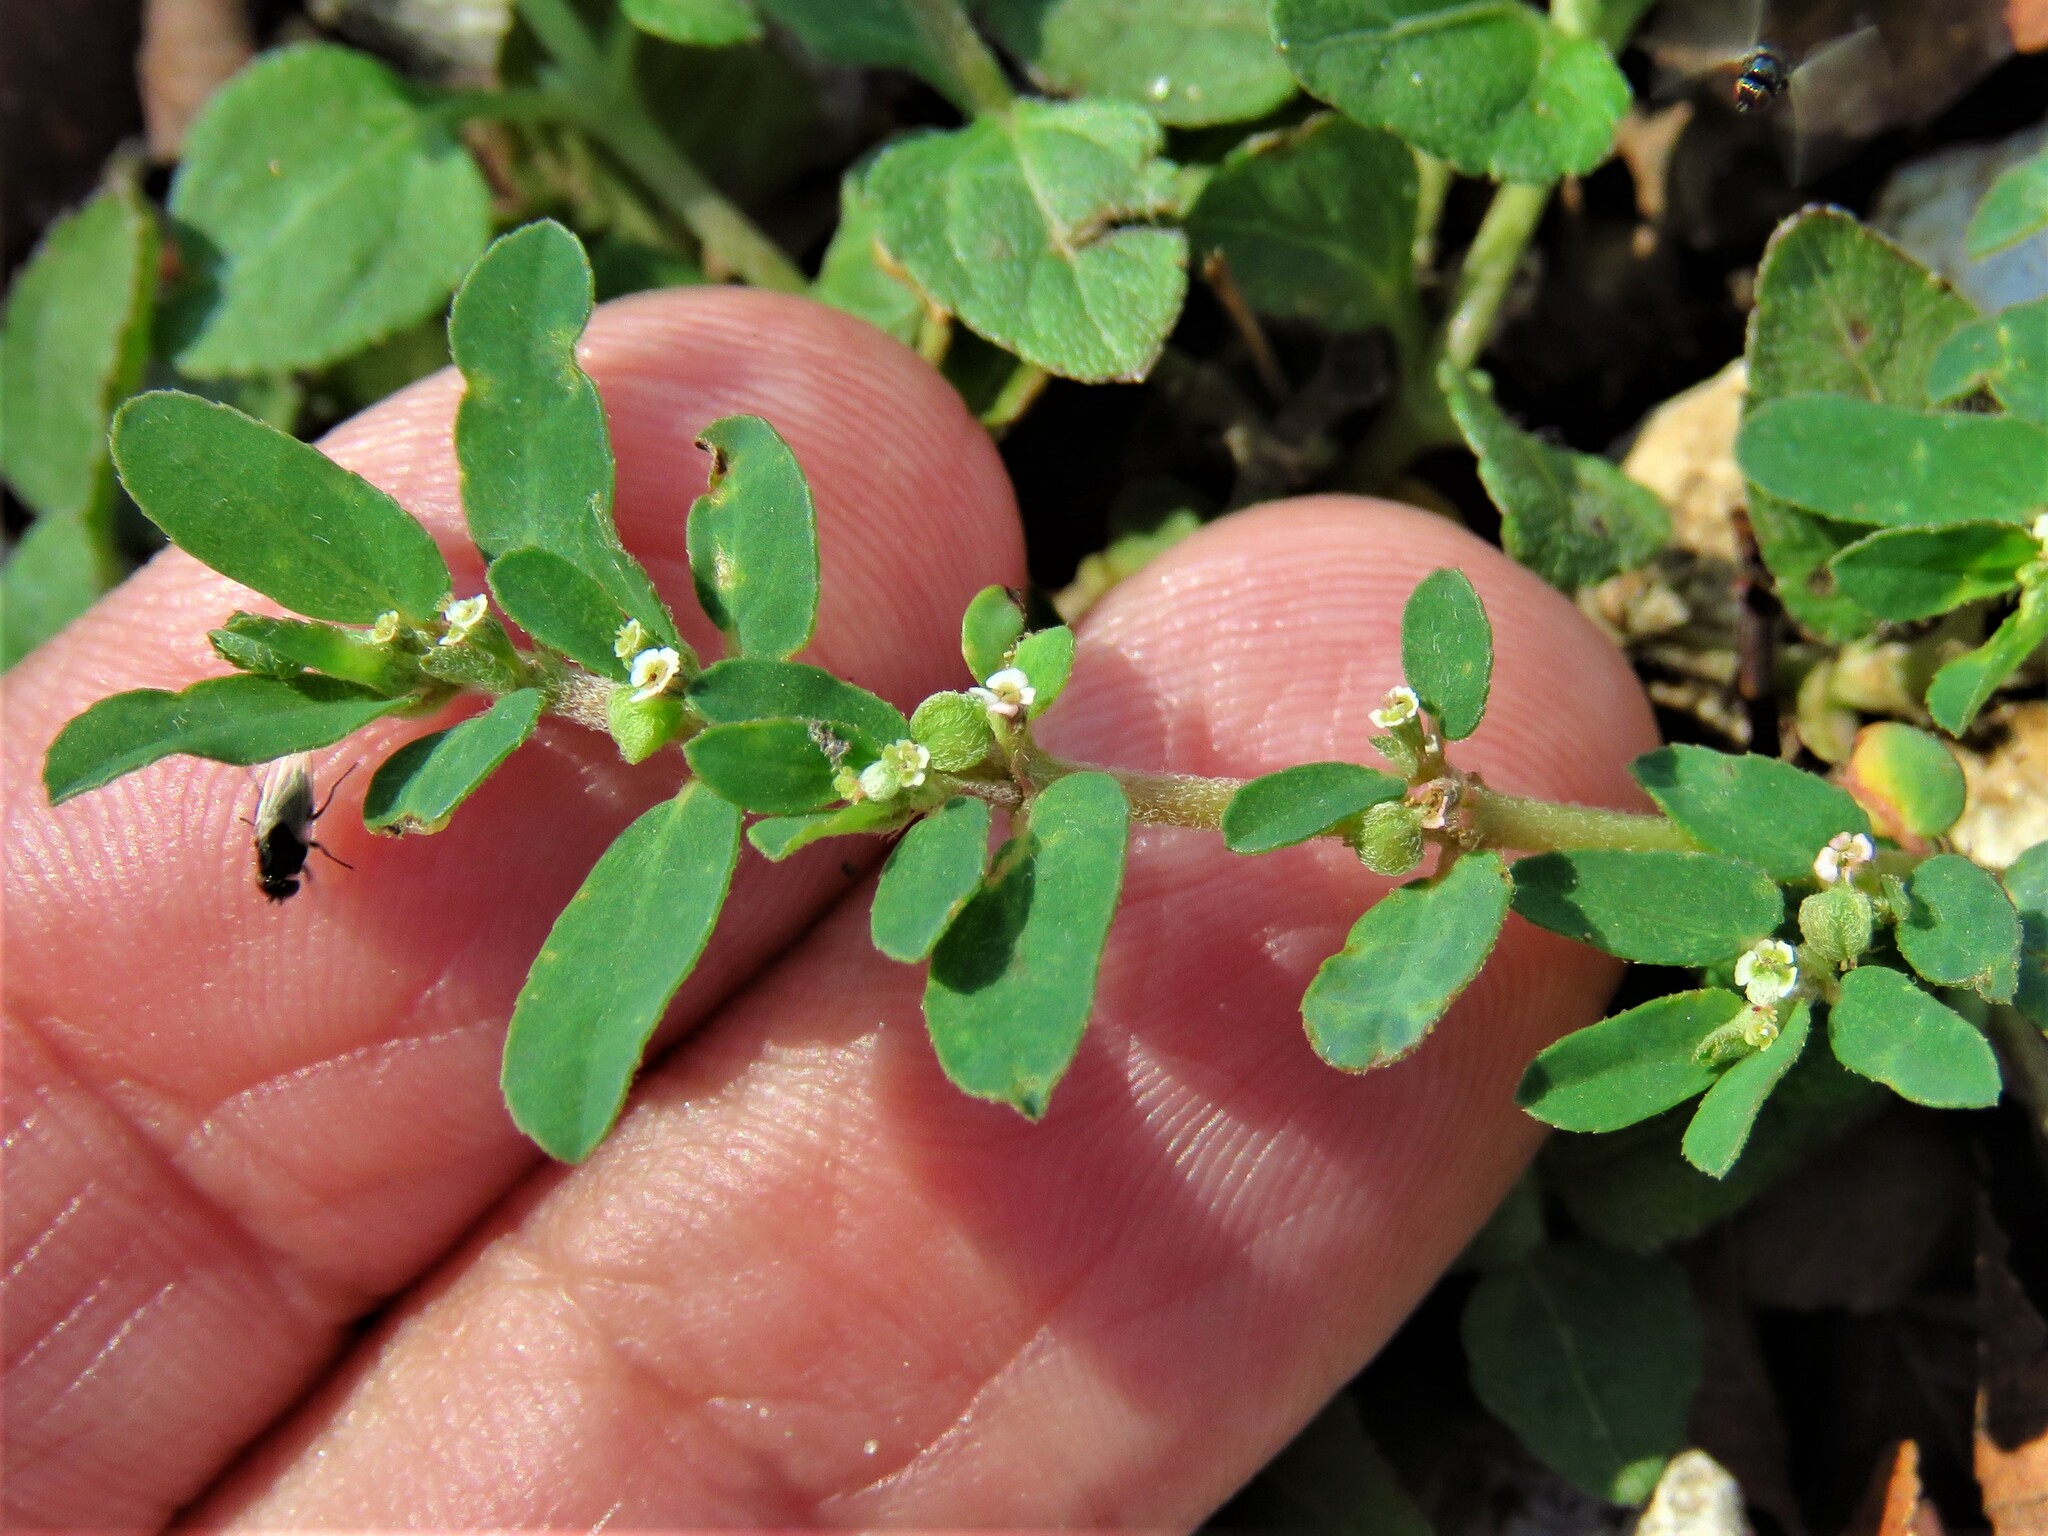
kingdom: Plantae
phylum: Tracheophyta
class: Magnoliopsida
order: Malpighiales
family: Euphorbiaceae
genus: Euphorbia
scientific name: Euphorbia prostrata
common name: Prostrate sandmat
